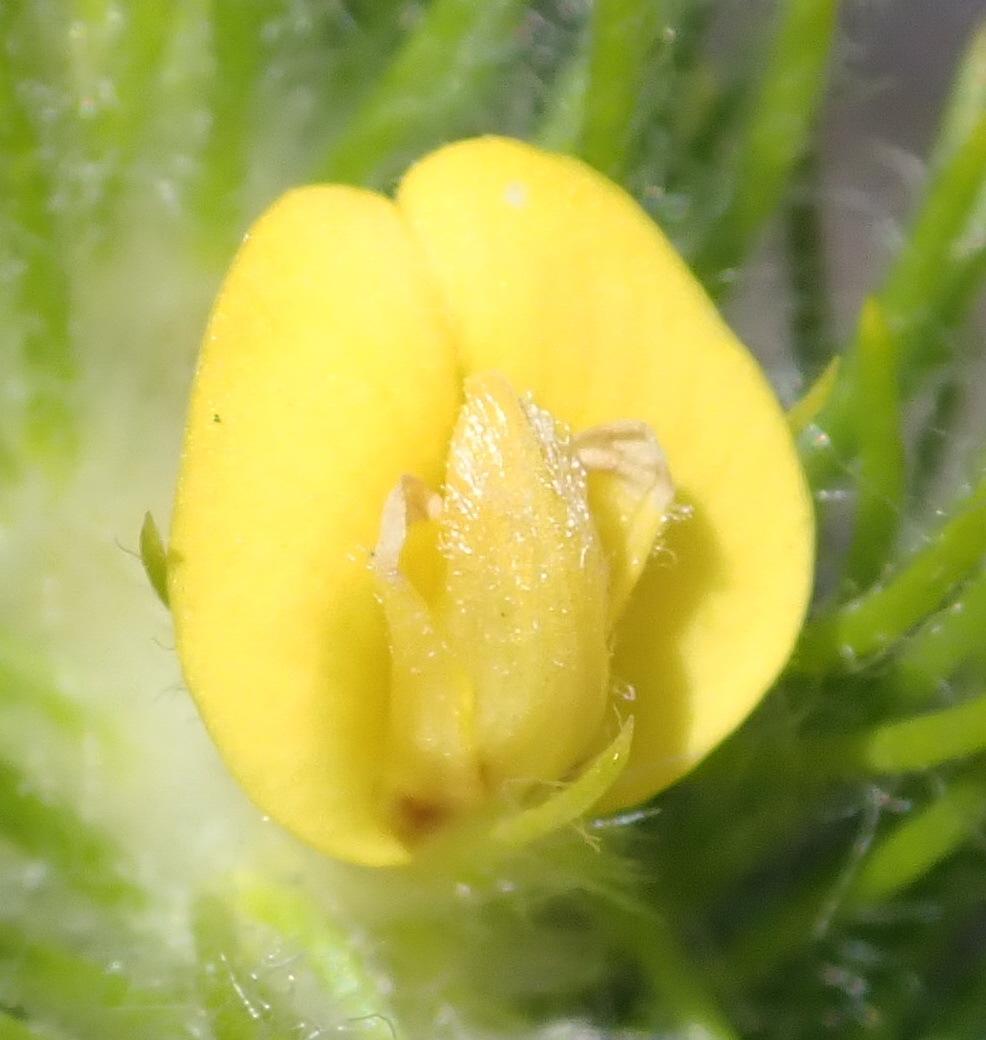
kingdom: Plantae
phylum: Tracheophyta
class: Magnoliopsida
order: Fabales
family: Fabaceae
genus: Aspalathus
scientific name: Aspalathus alopecurus
